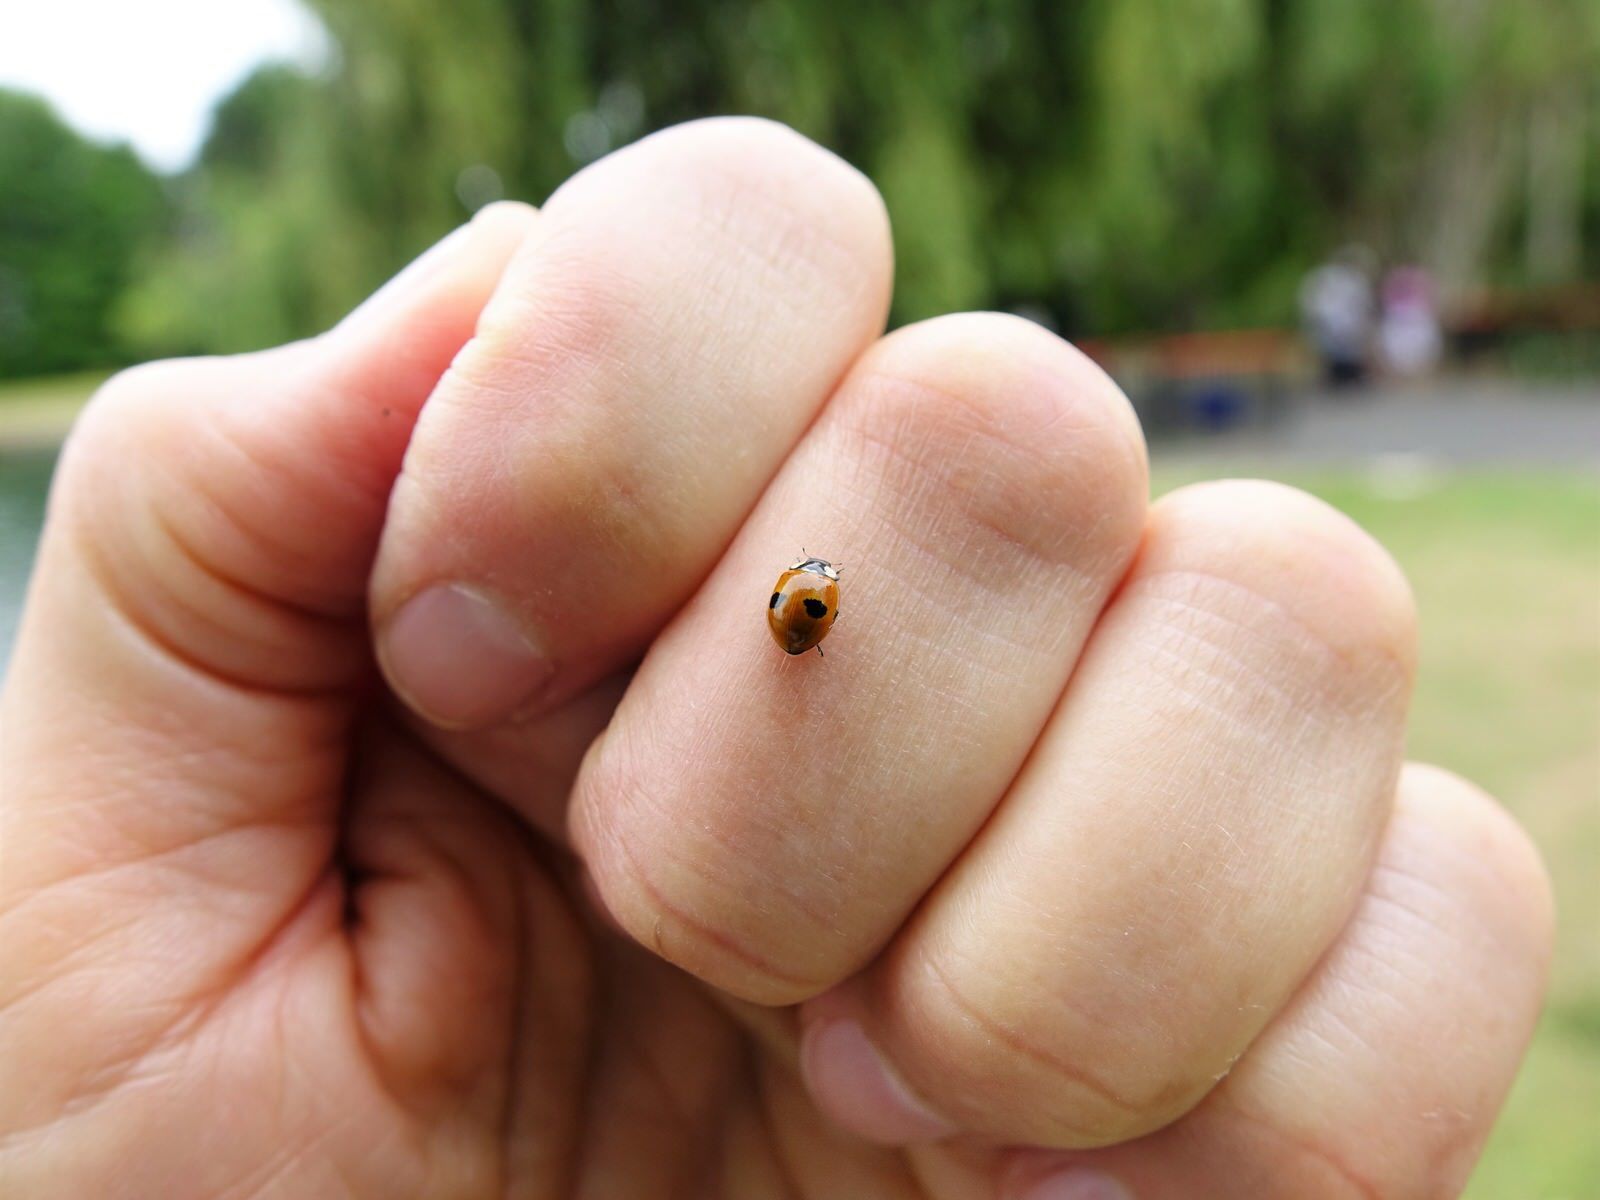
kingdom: Animalia
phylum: Arthropoda
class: Insecta
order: Coleoptera
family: Coccinellidae
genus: Adalia
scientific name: Adalia bipunctata
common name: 2-spot ladybird
